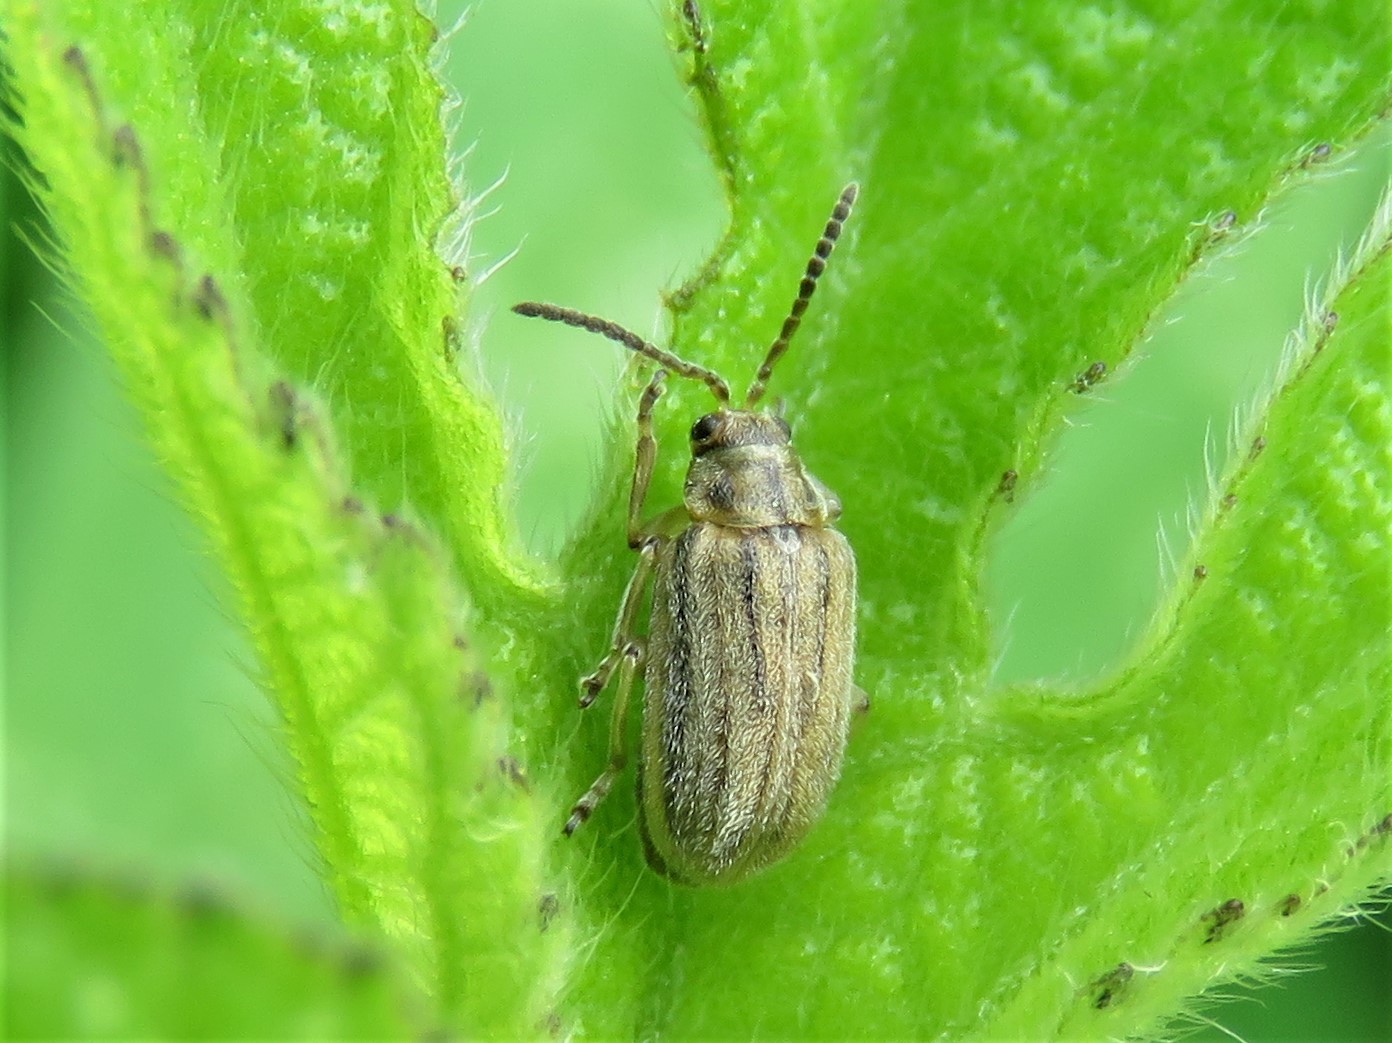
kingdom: Animalia
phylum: Arthropoda
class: Insecta
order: Coleoptera
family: Chrysomelidae
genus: Ophraella
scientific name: Ophraella communa
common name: Ragweed leaf beetle
